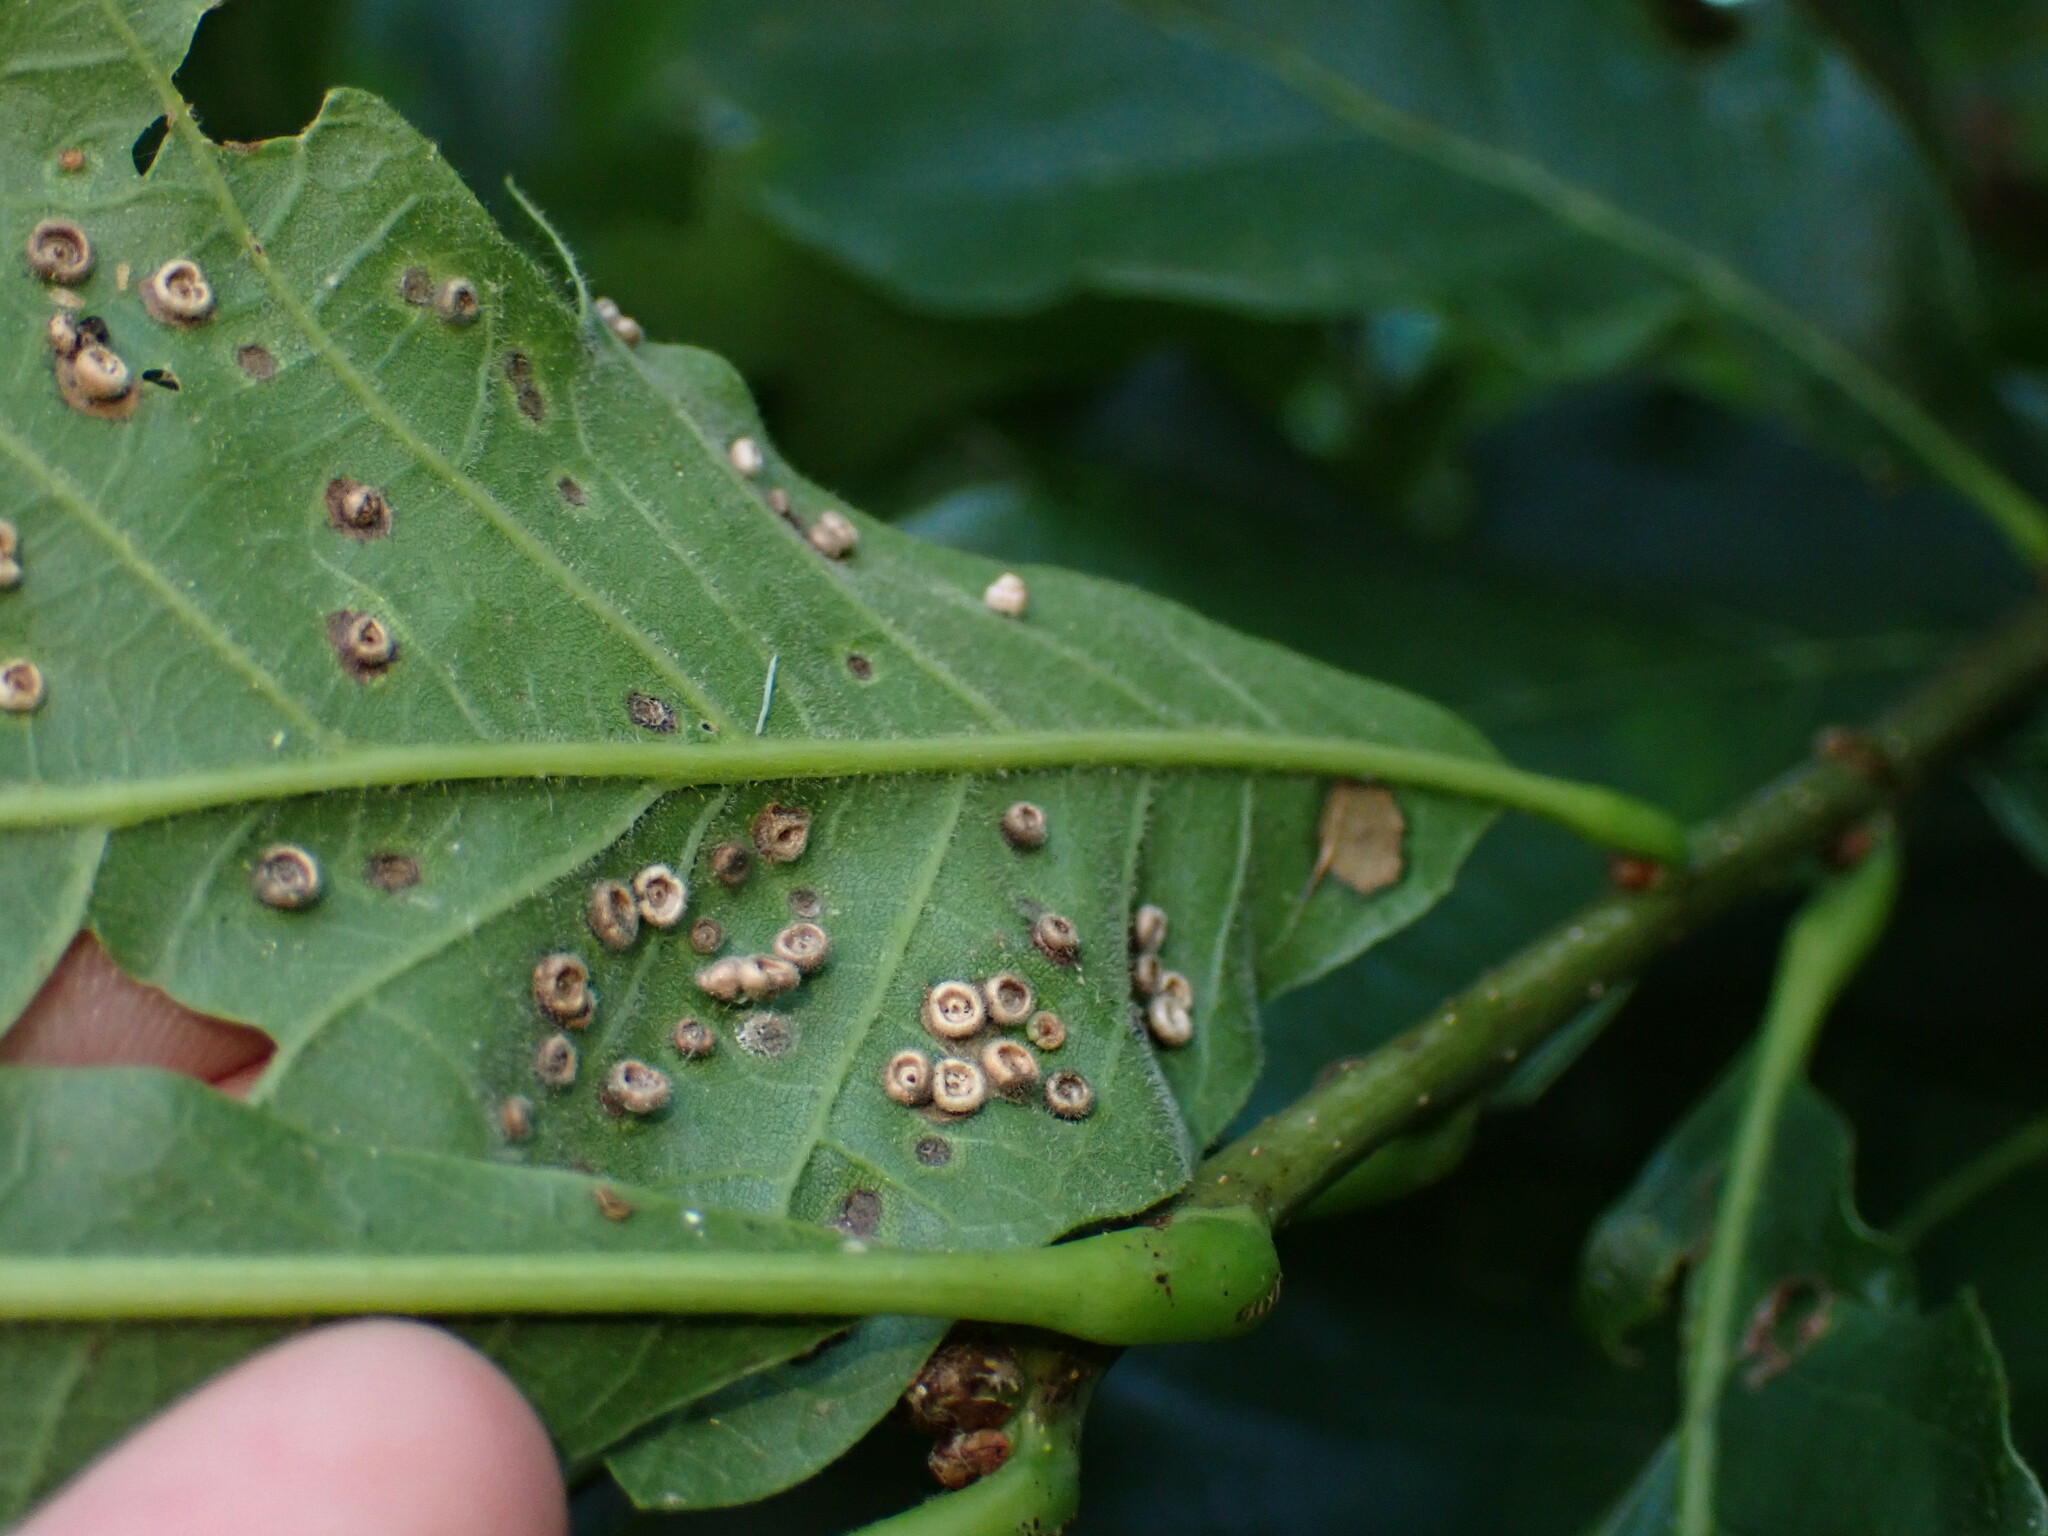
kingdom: Animalia
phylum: Arthropoda
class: Insecta
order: Hymenoptera
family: Cynipidae
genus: Neuroterus
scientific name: Neuroterus
